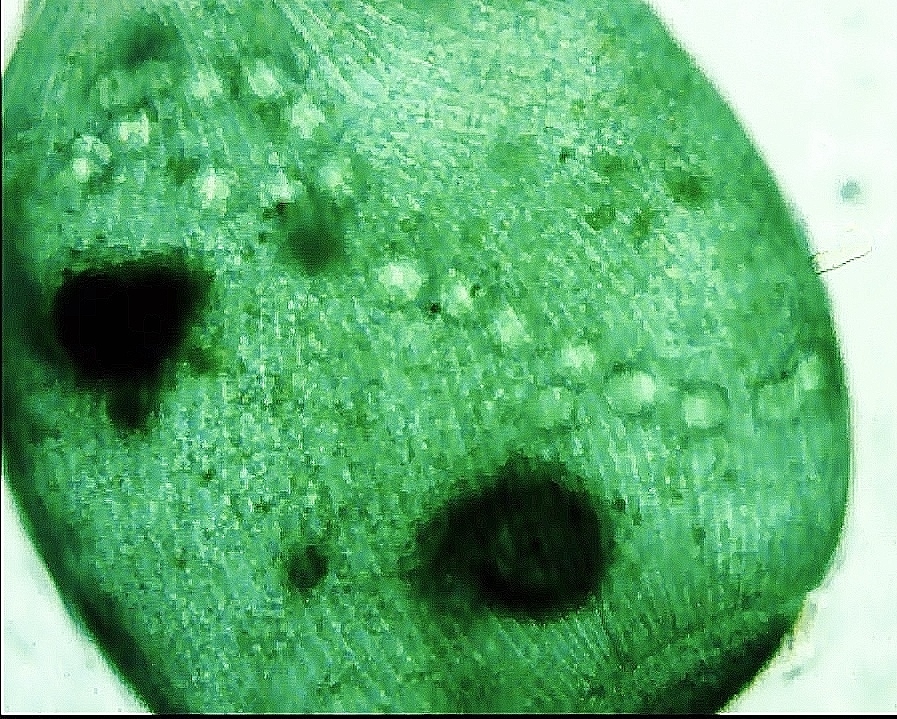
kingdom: Chromista
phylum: Ciliophora
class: Heterotrichea
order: Heterotrichida
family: Stentoridae
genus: Stentor
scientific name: Stentor coeruleus
